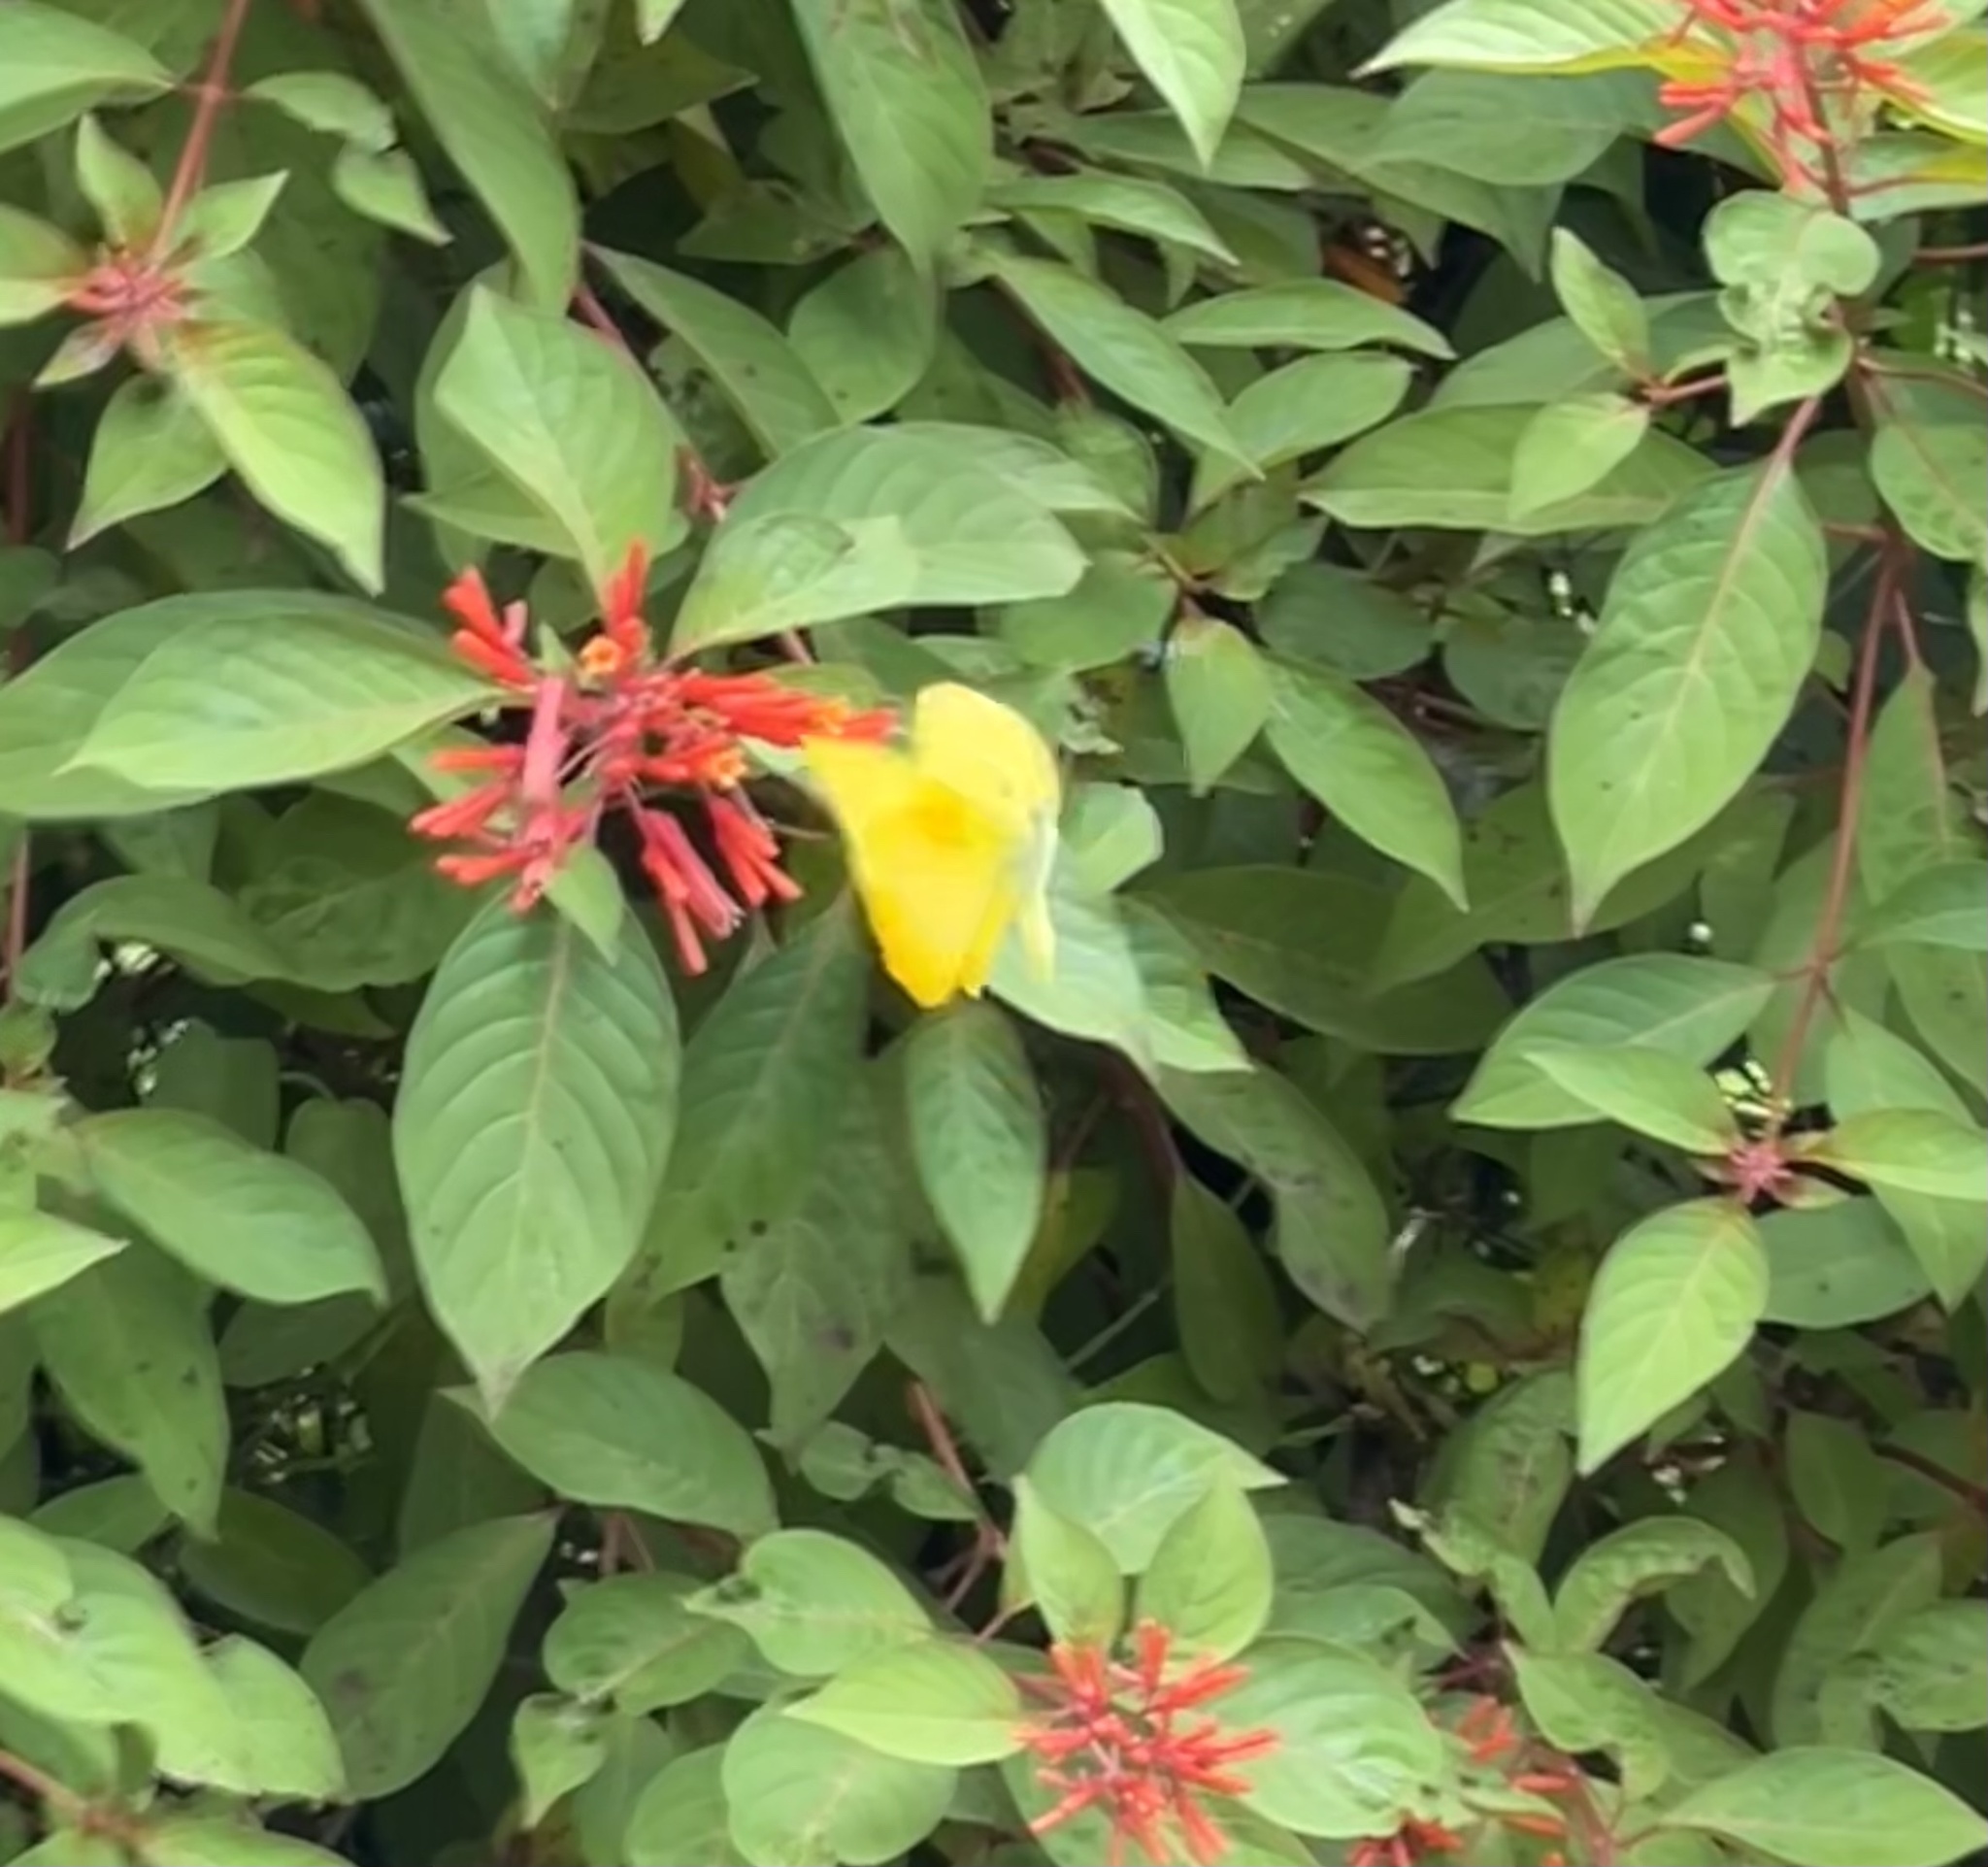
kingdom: Animalia
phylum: Arthropoda
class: Insecta
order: Lepidoptera
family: Pieridae
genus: Phoebis
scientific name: Phoebis philea
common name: Orange-barred giant sulphur
